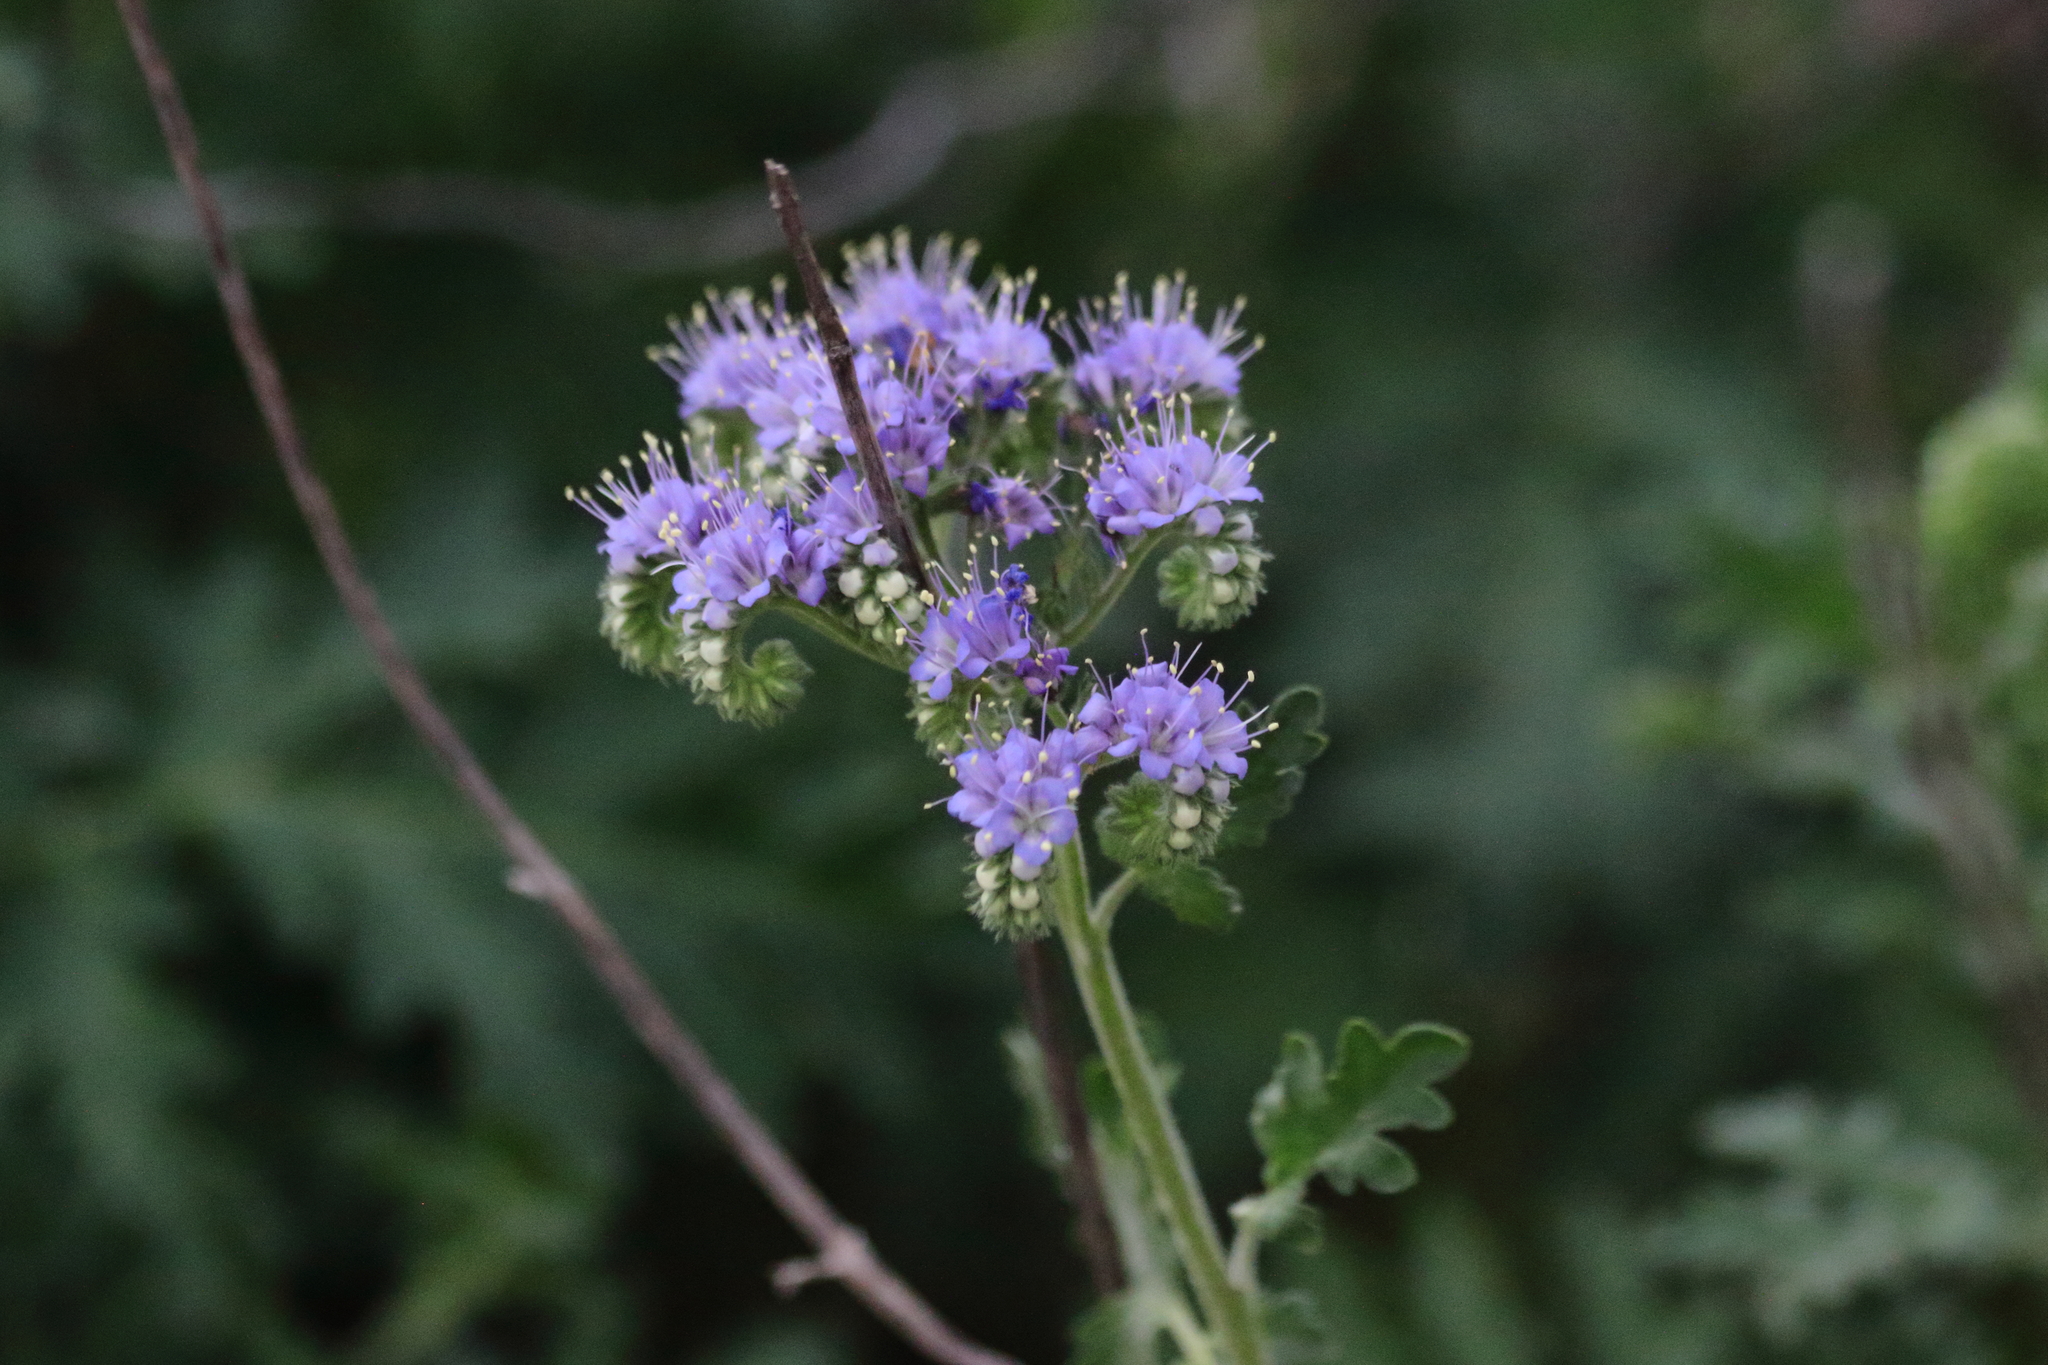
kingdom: Plantae
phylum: Tracheophyta
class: Magnoliopsida
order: Boraginales
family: Hydrophyllaceae
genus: Phacelia
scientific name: Phacelia congesta
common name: Blue curls
